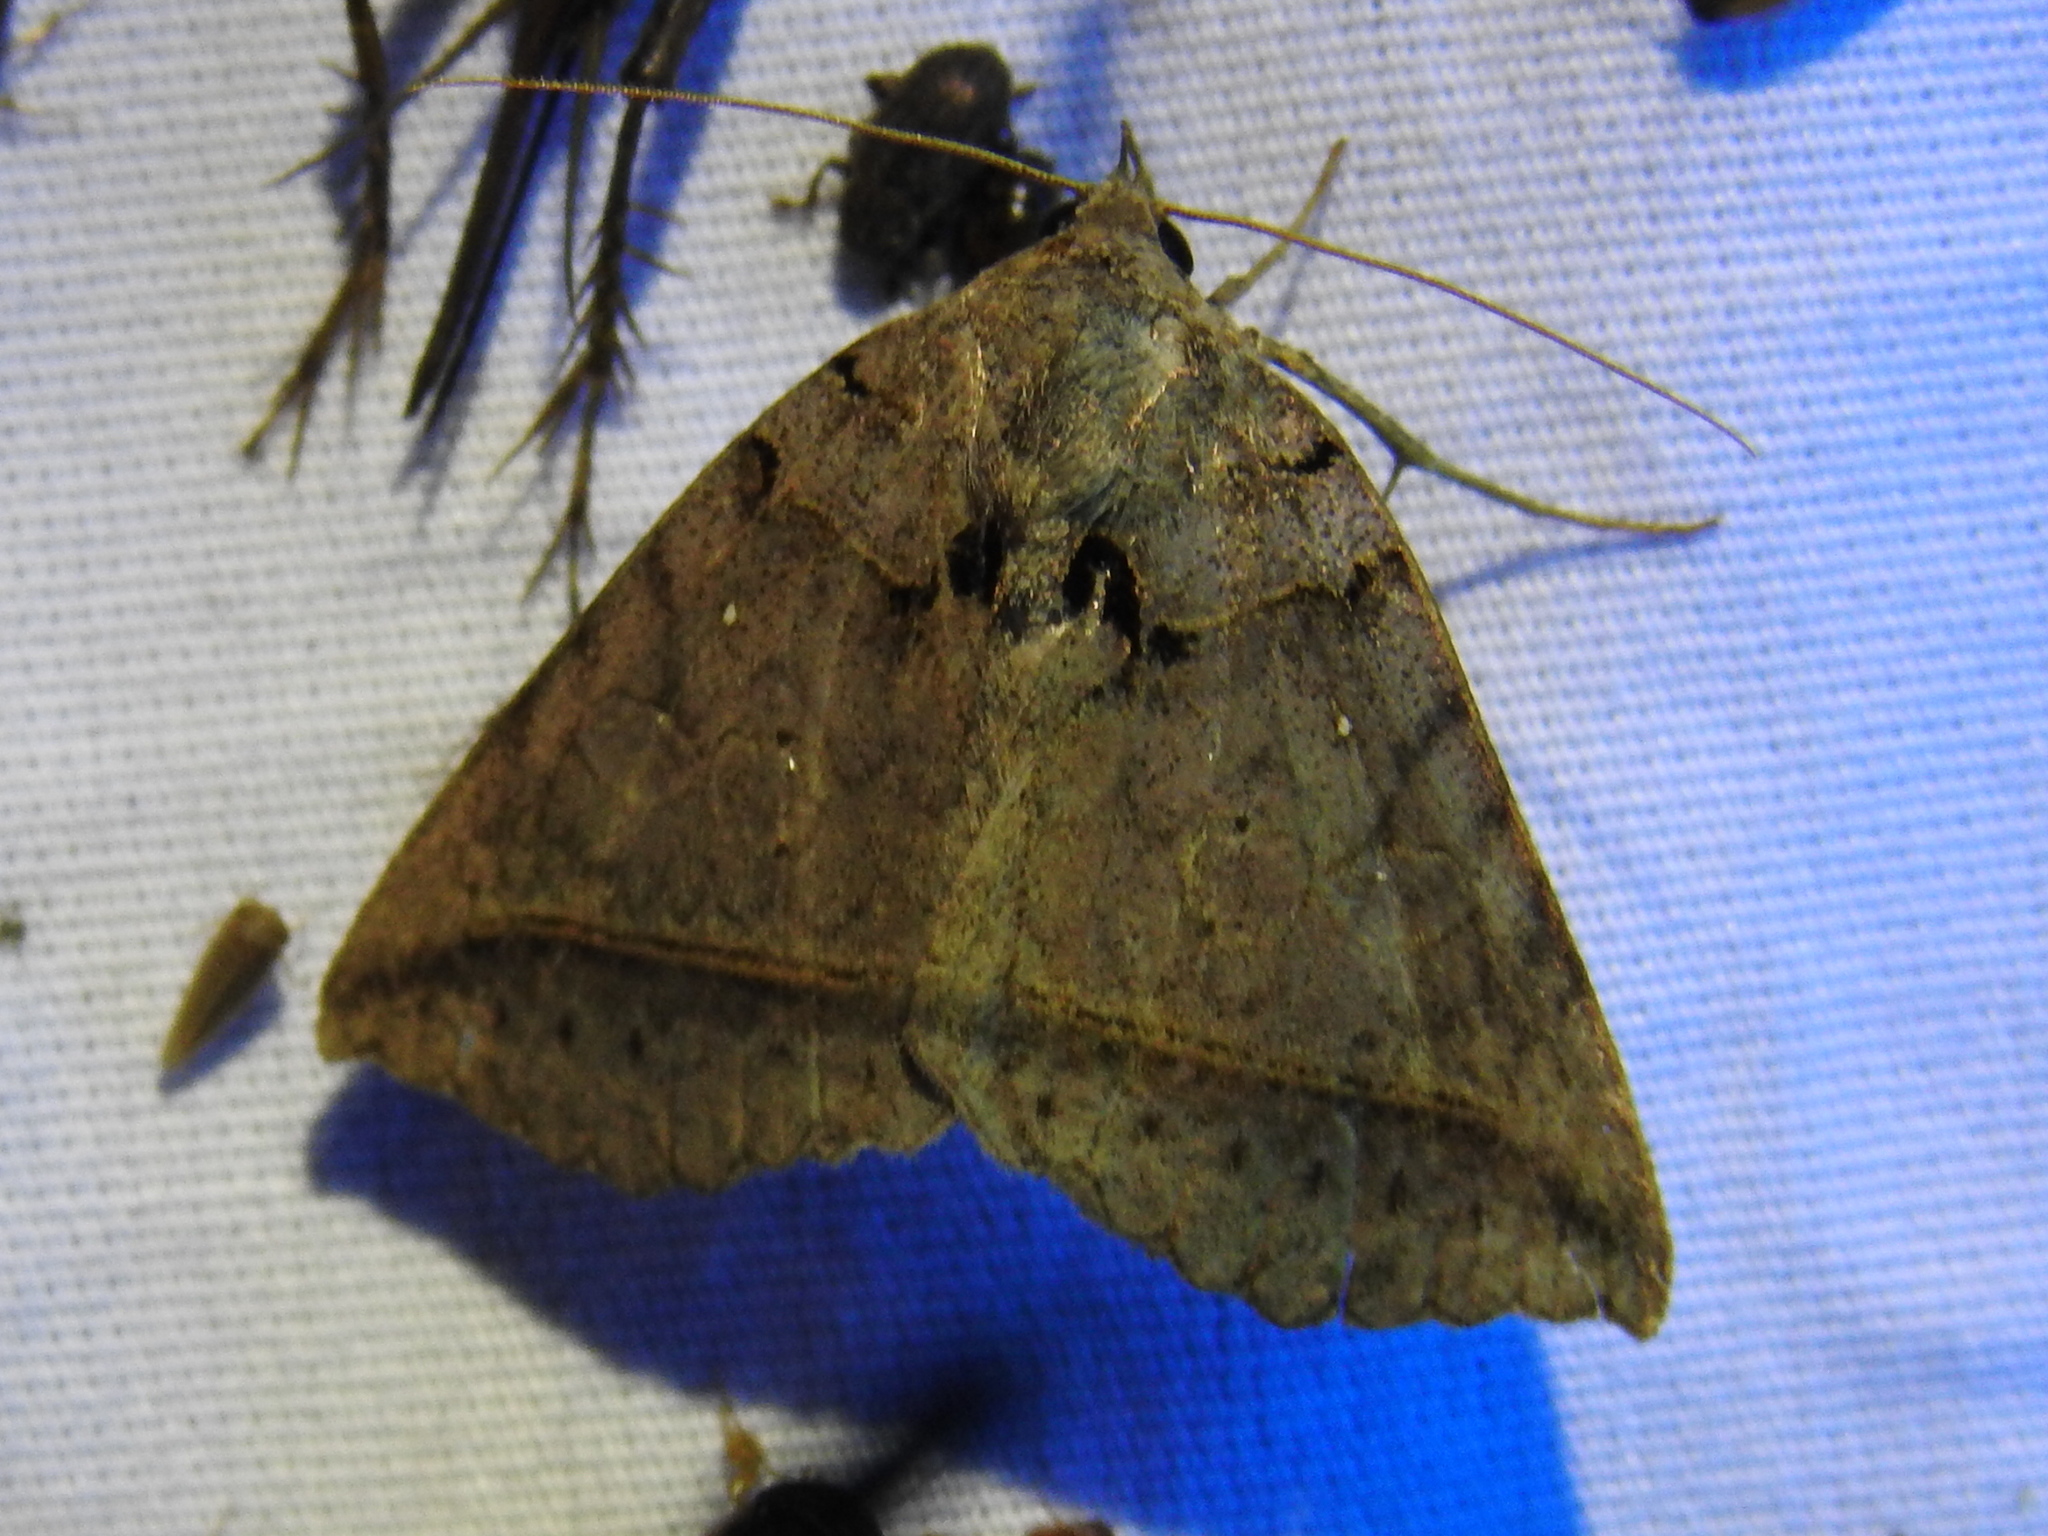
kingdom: Animalia
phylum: Arthropoda
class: Insecta
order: Lepidoptera
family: Erebidae
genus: Celiptera
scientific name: Celiptera frustulum
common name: Black bit moth
